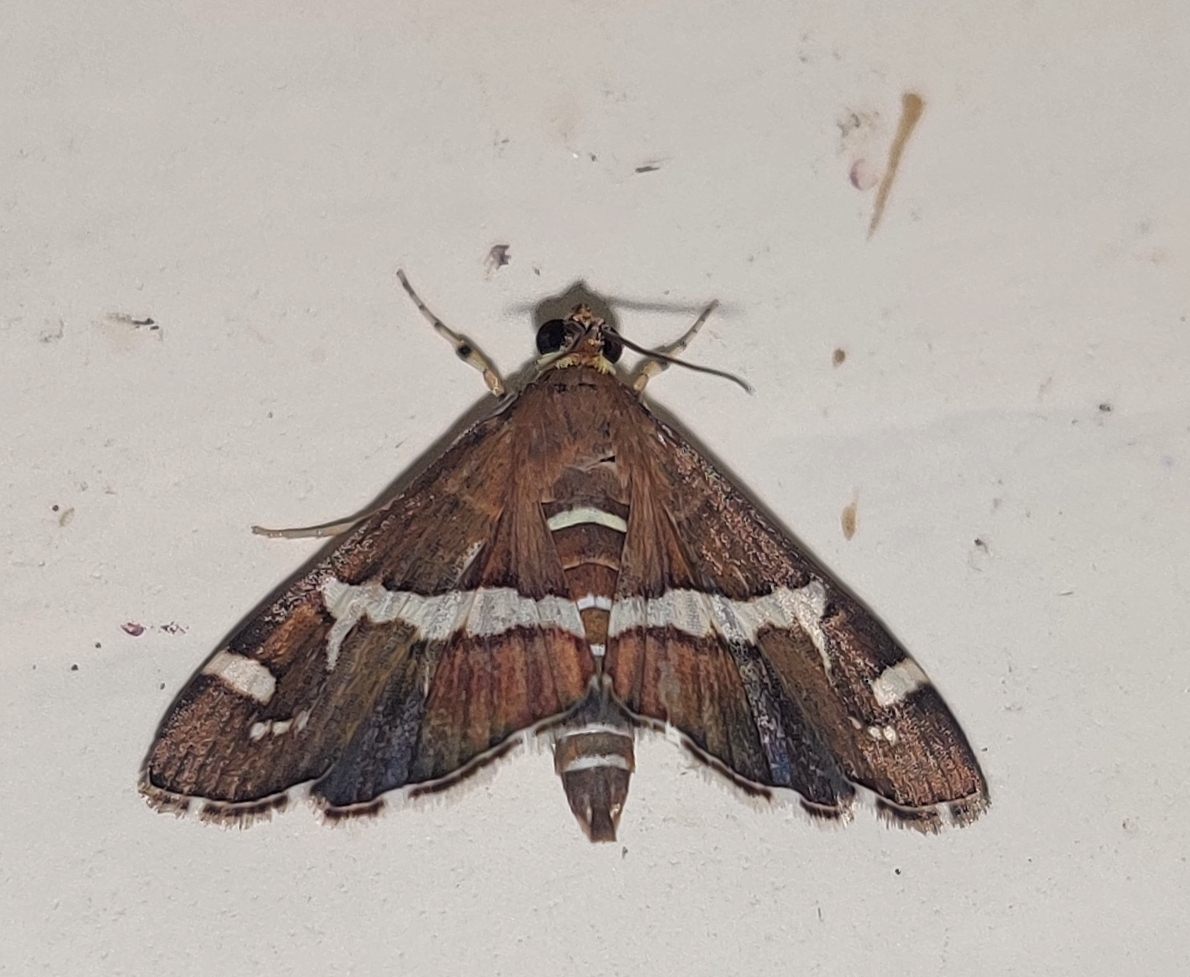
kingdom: Animalia
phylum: Arthropoda
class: Insecta
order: Lepidoptera
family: Crambidae
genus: Spoladea
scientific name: Spoladea recurvalis
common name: Beet webworm moth
